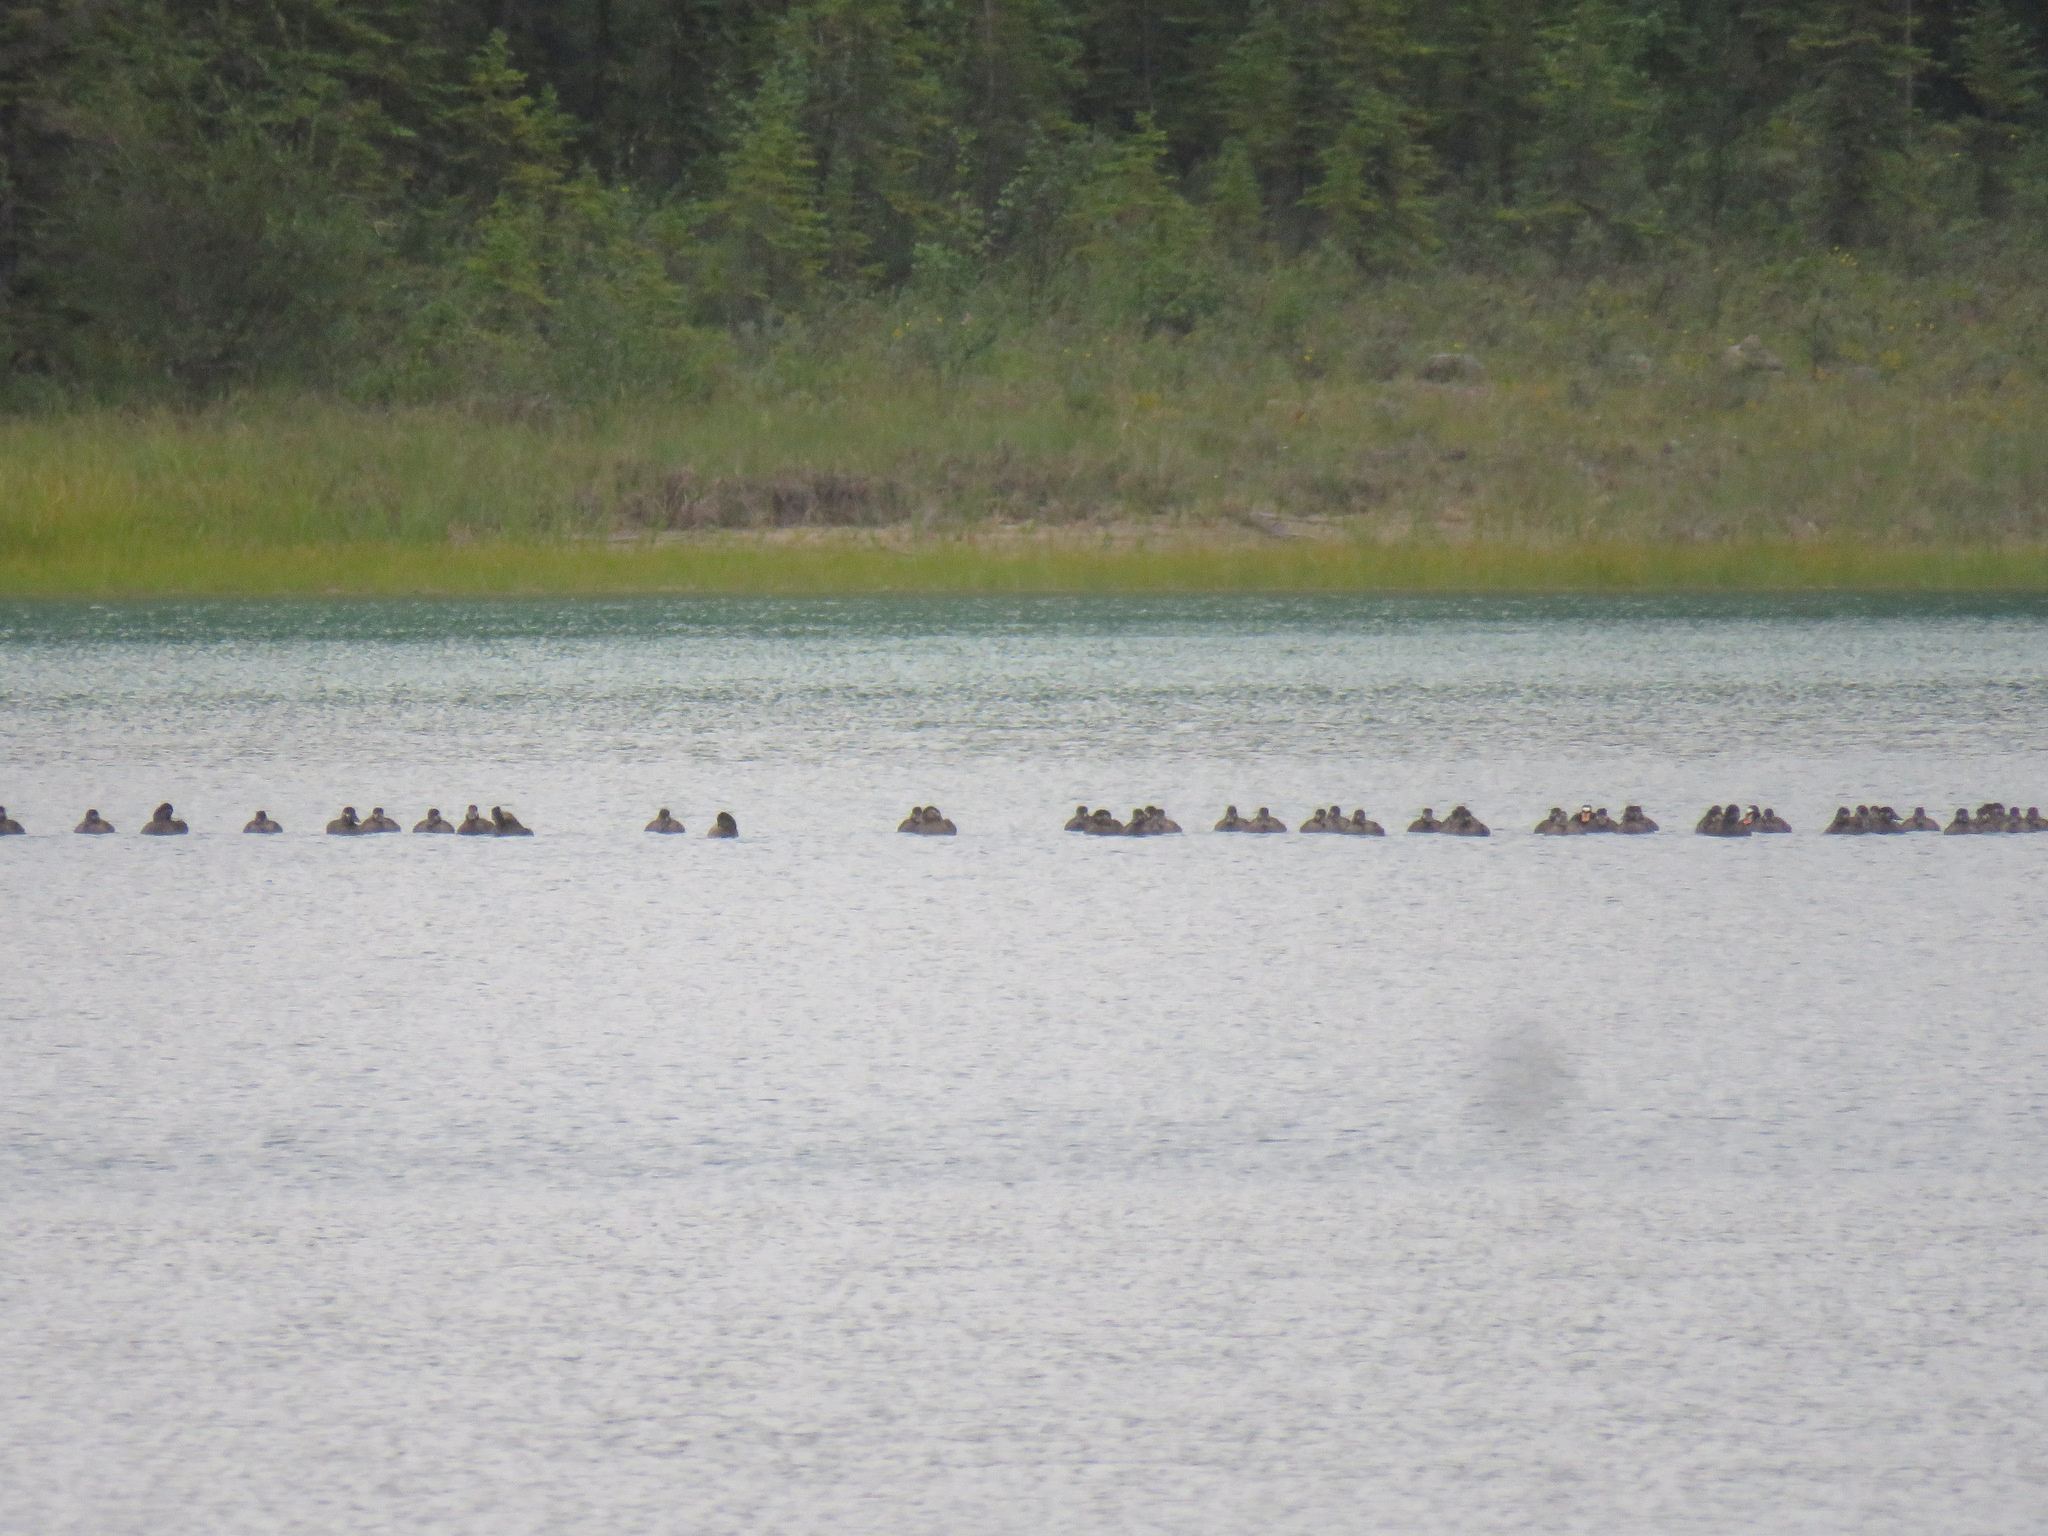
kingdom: Animalia
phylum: Chordata
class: Aves
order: Anseriformes
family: Anatidae
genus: Melanitta
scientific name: Melanitta perspicillata
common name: Surf scoter
